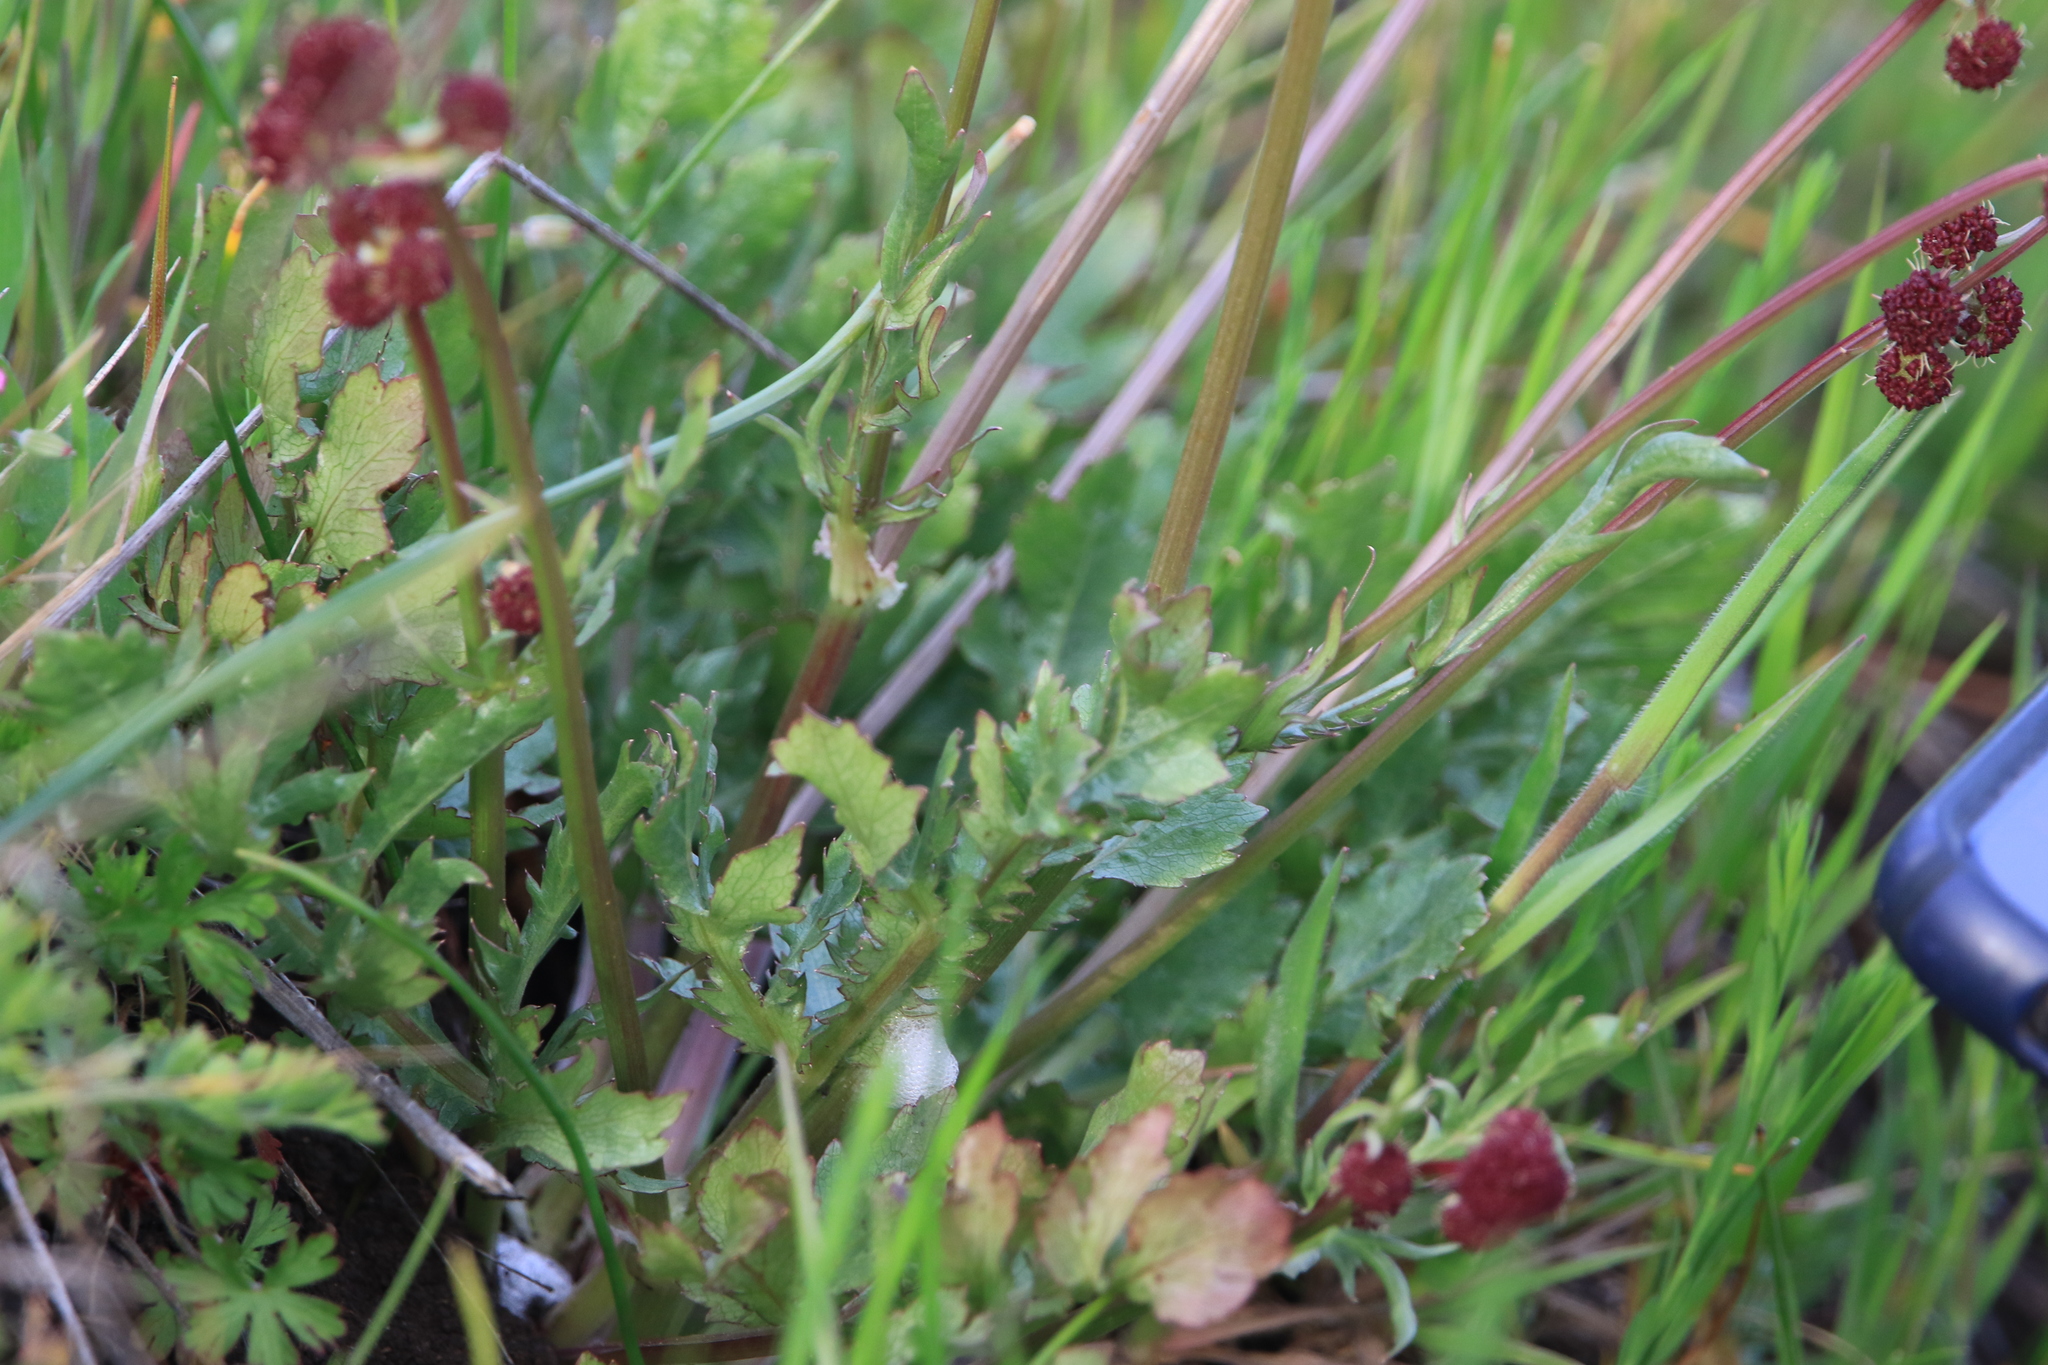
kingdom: Plantae
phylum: Tracheophyta
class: Magnoliopsida
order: Apiales
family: Apiaceae
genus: Sanicula
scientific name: Sanicula bipinnatifida
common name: Shoe-buttons
